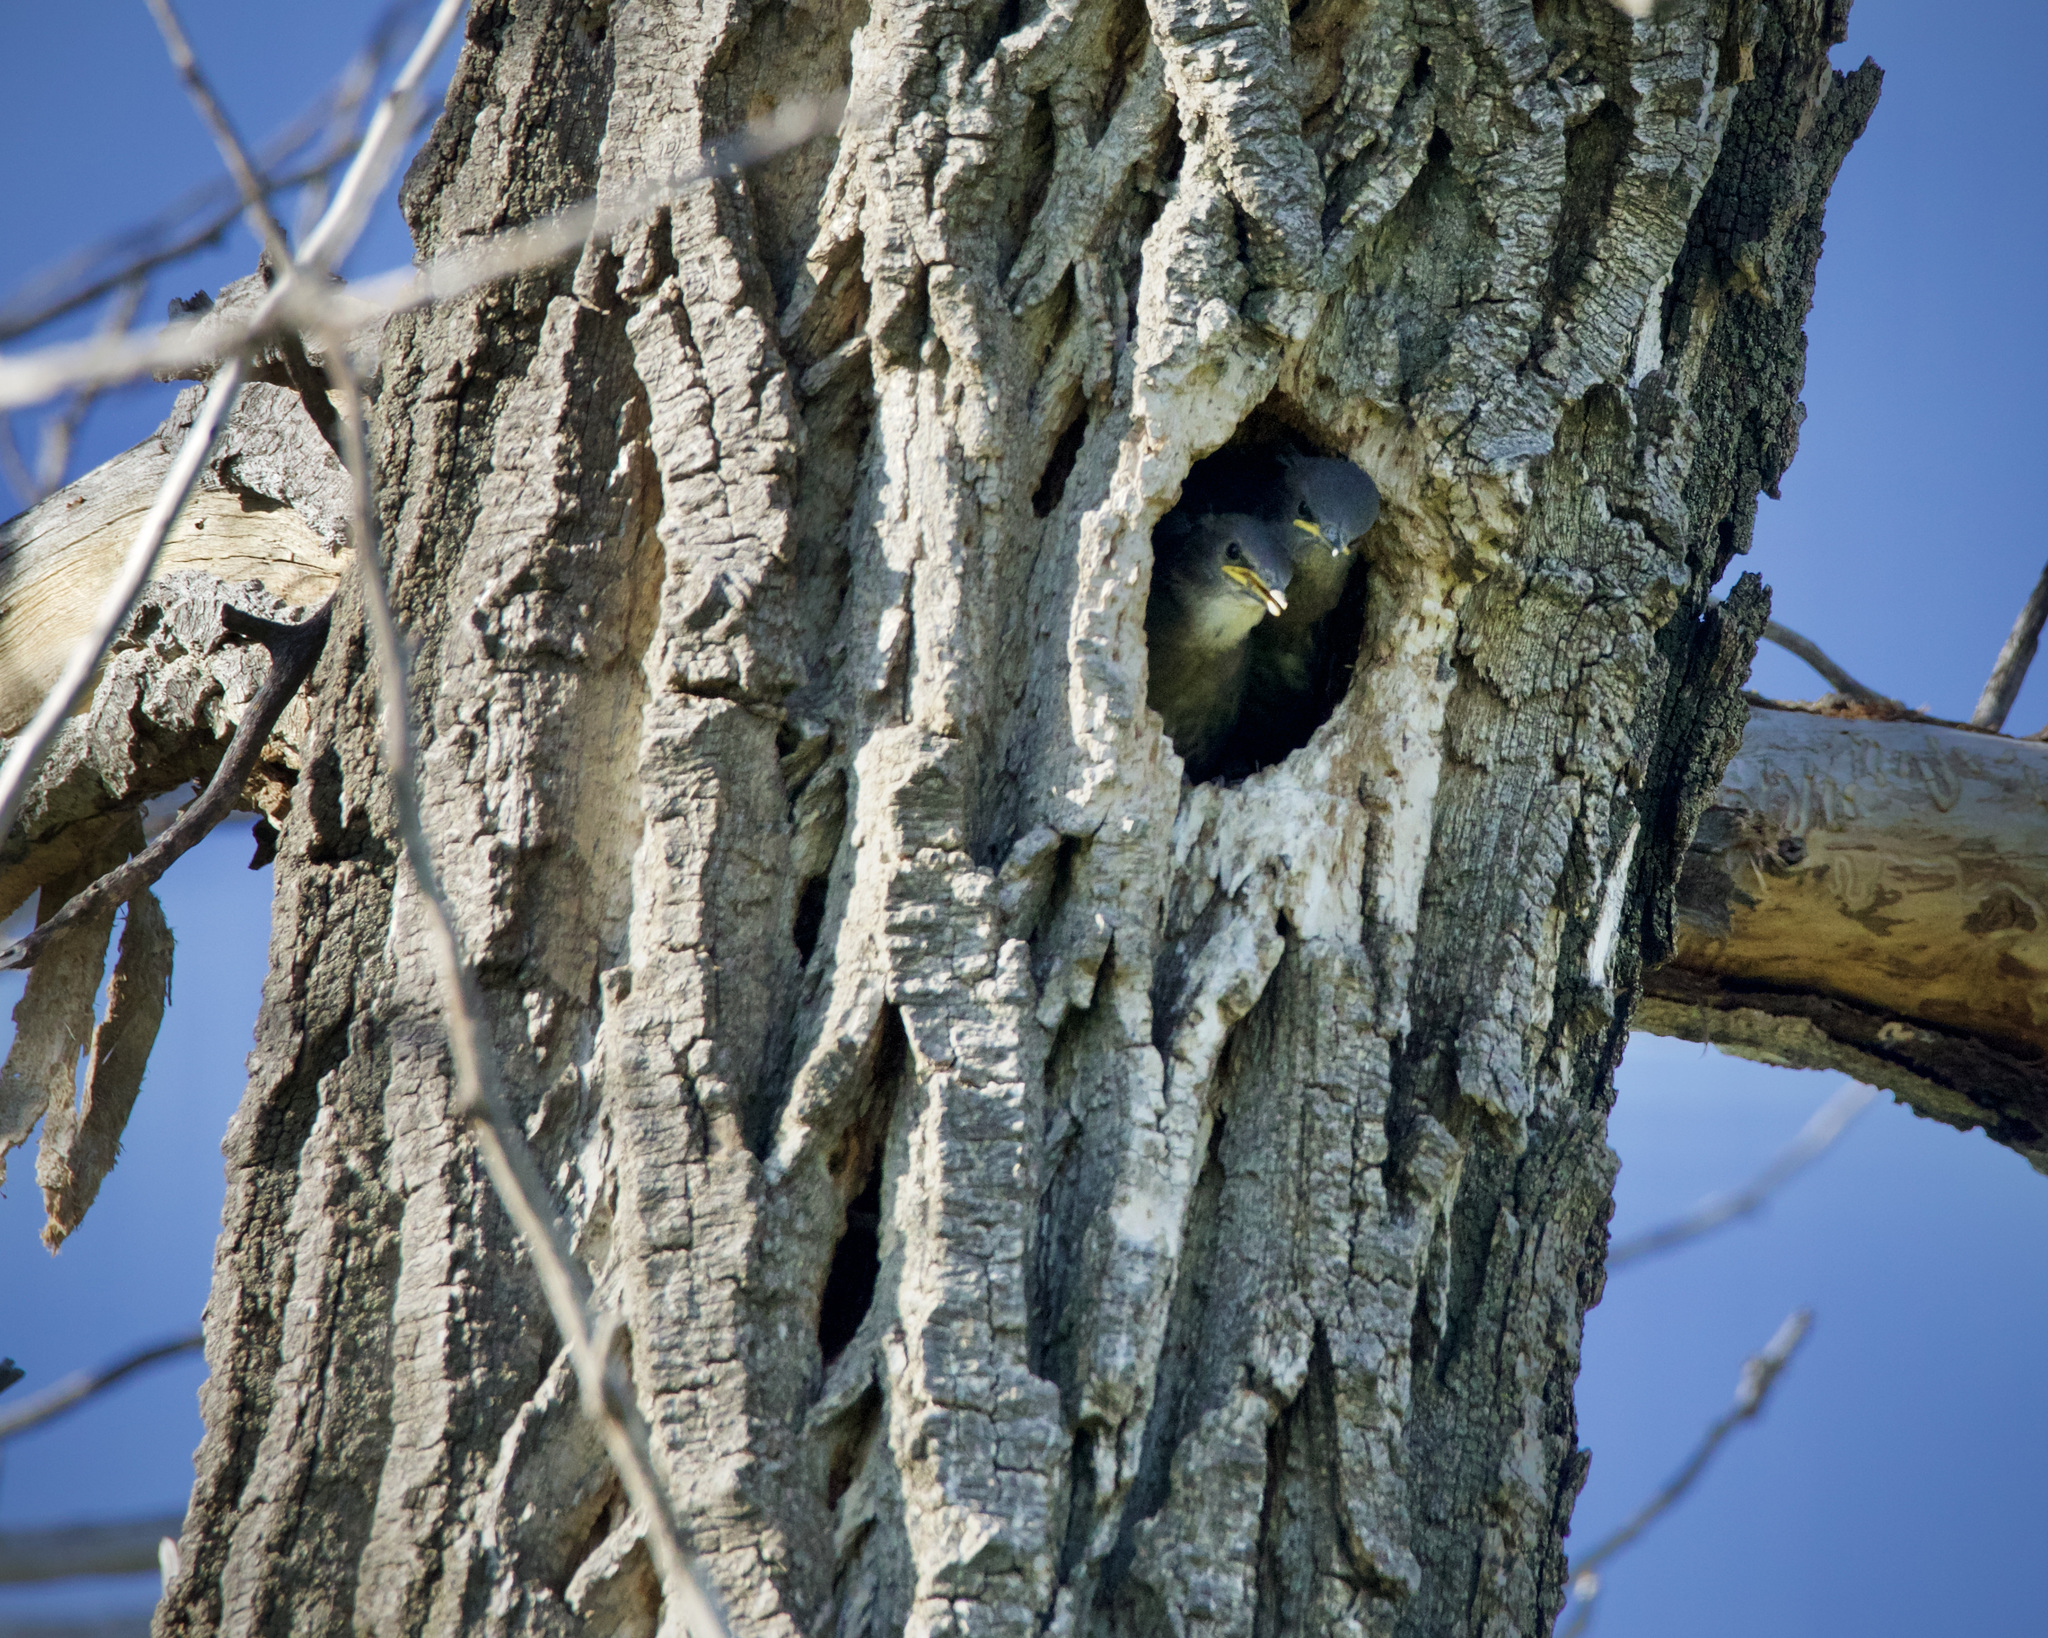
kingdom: Animalia
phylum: Chordata
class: Aves
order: Passeriformes
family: Sturnidae
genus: Sturnus
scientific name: Sturnus vulgaris
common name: Common starling
